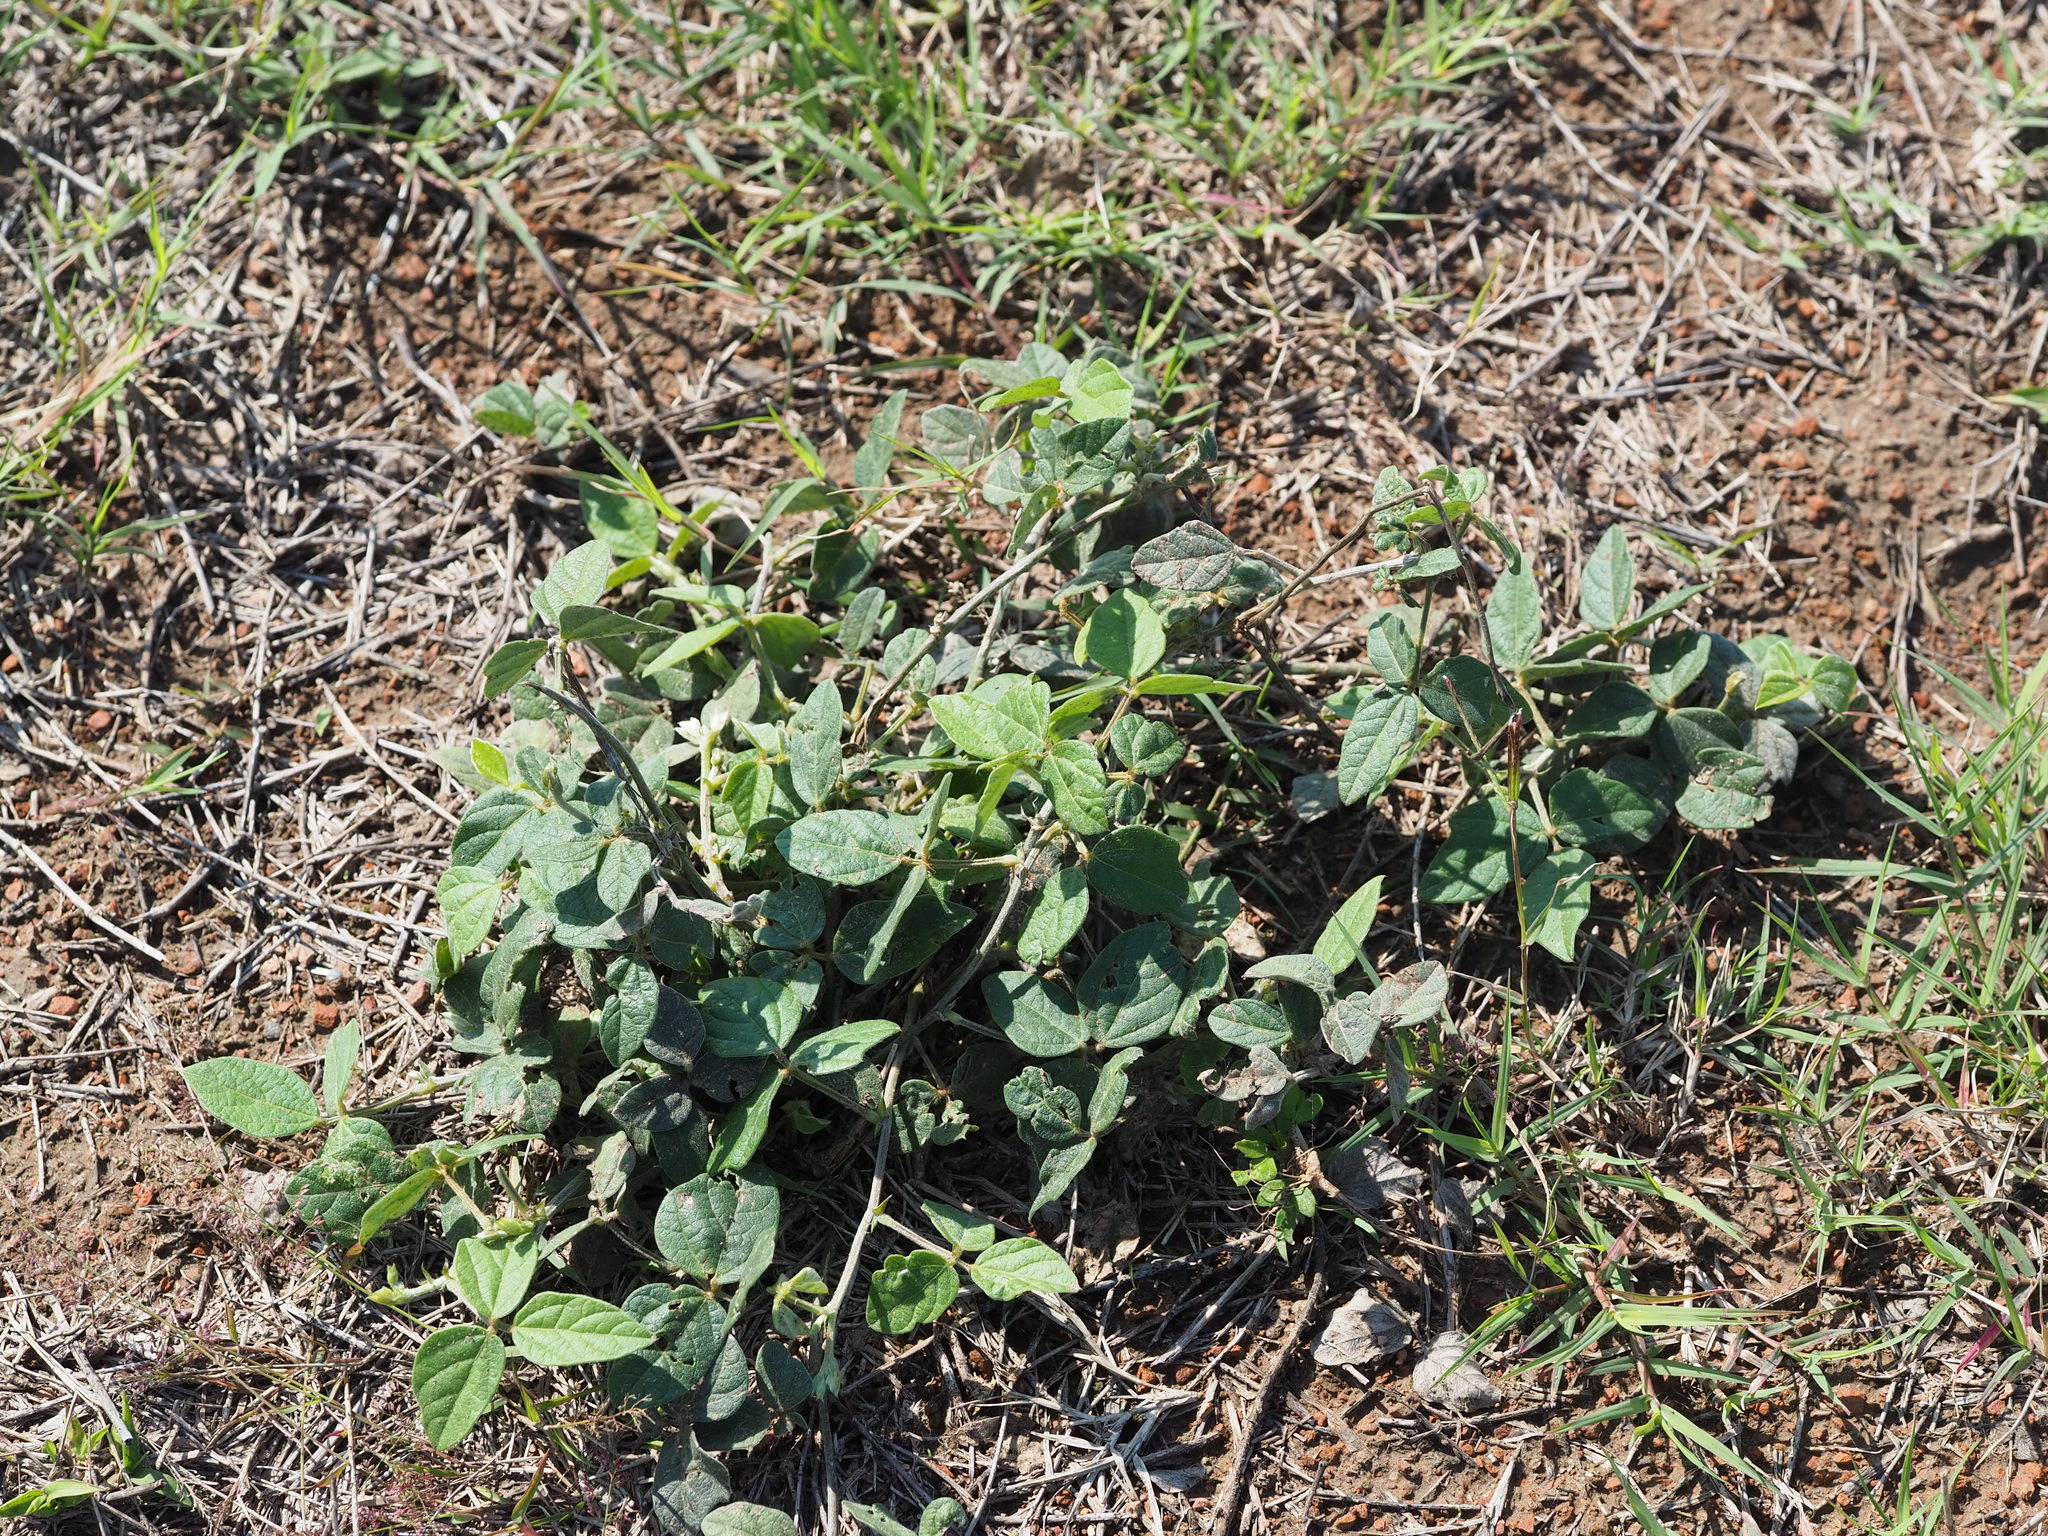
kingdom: Plantae
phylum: Tracheophyta
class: Magnoliopsida
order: Fabales
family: Fabaceae
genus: Macroptilium
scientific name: Macroptilium atropurpureum
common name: Purple bushbean
